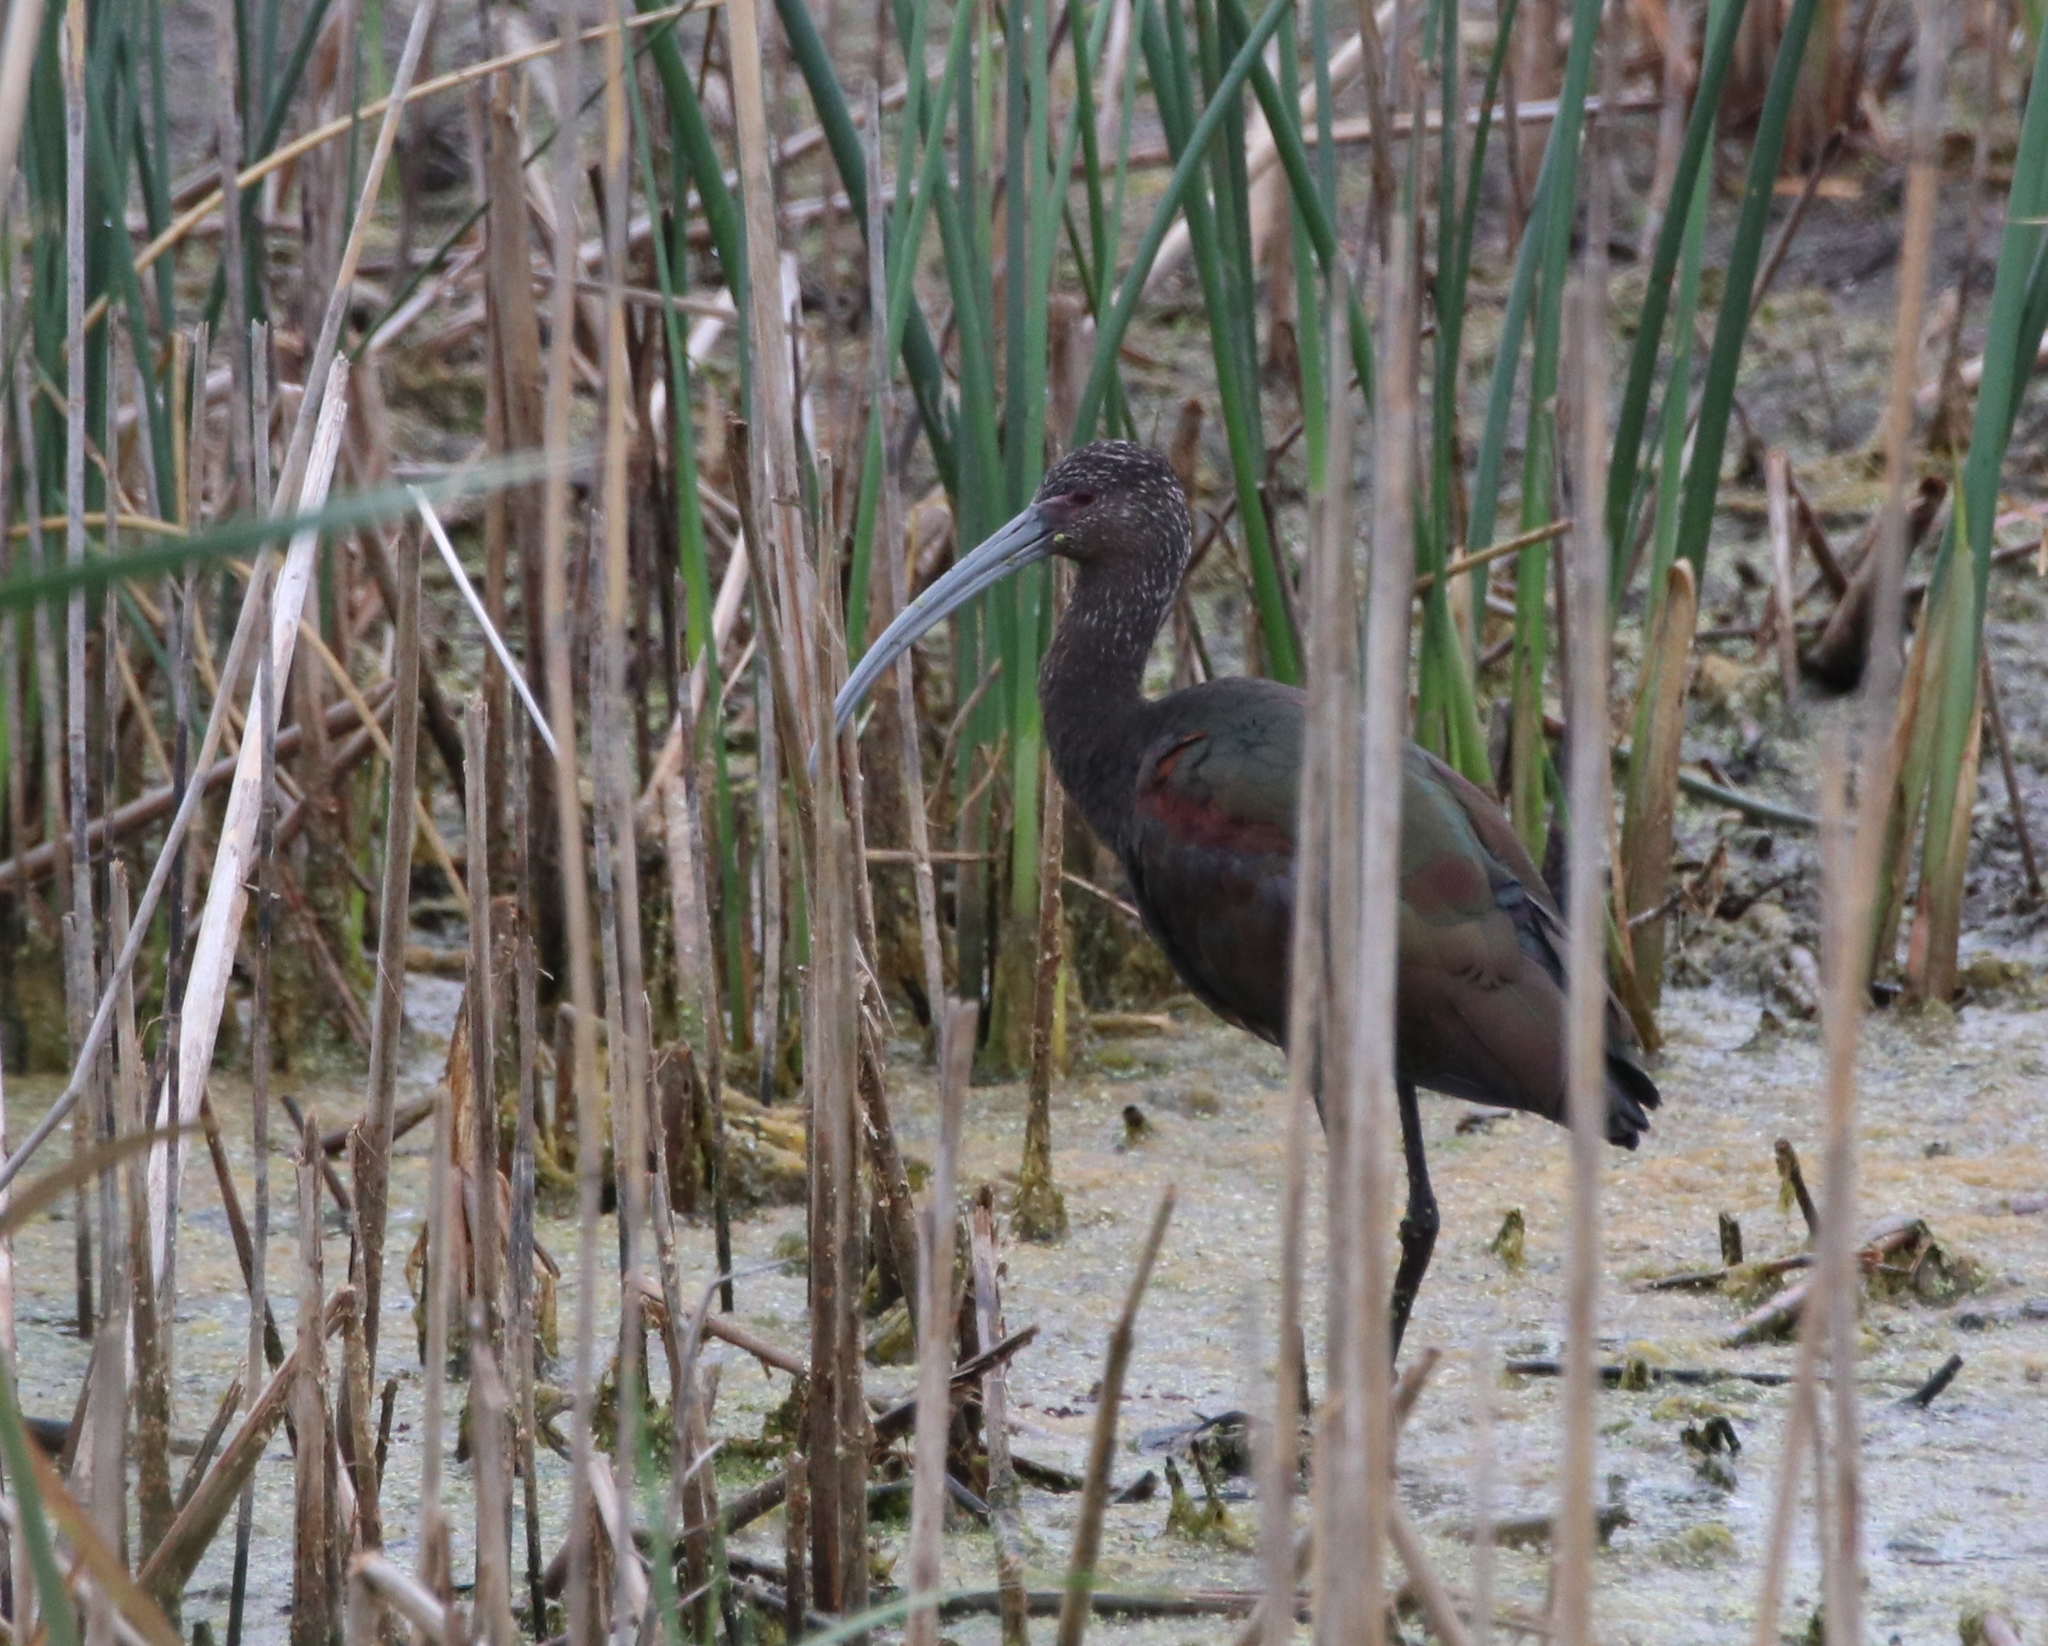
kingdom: Animalia
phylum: Chordata
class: Aves
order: Pelecaniformes
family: Threskiornithidae
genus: Plegadis
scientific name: Plegadis chihi
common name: White-faced ibis
